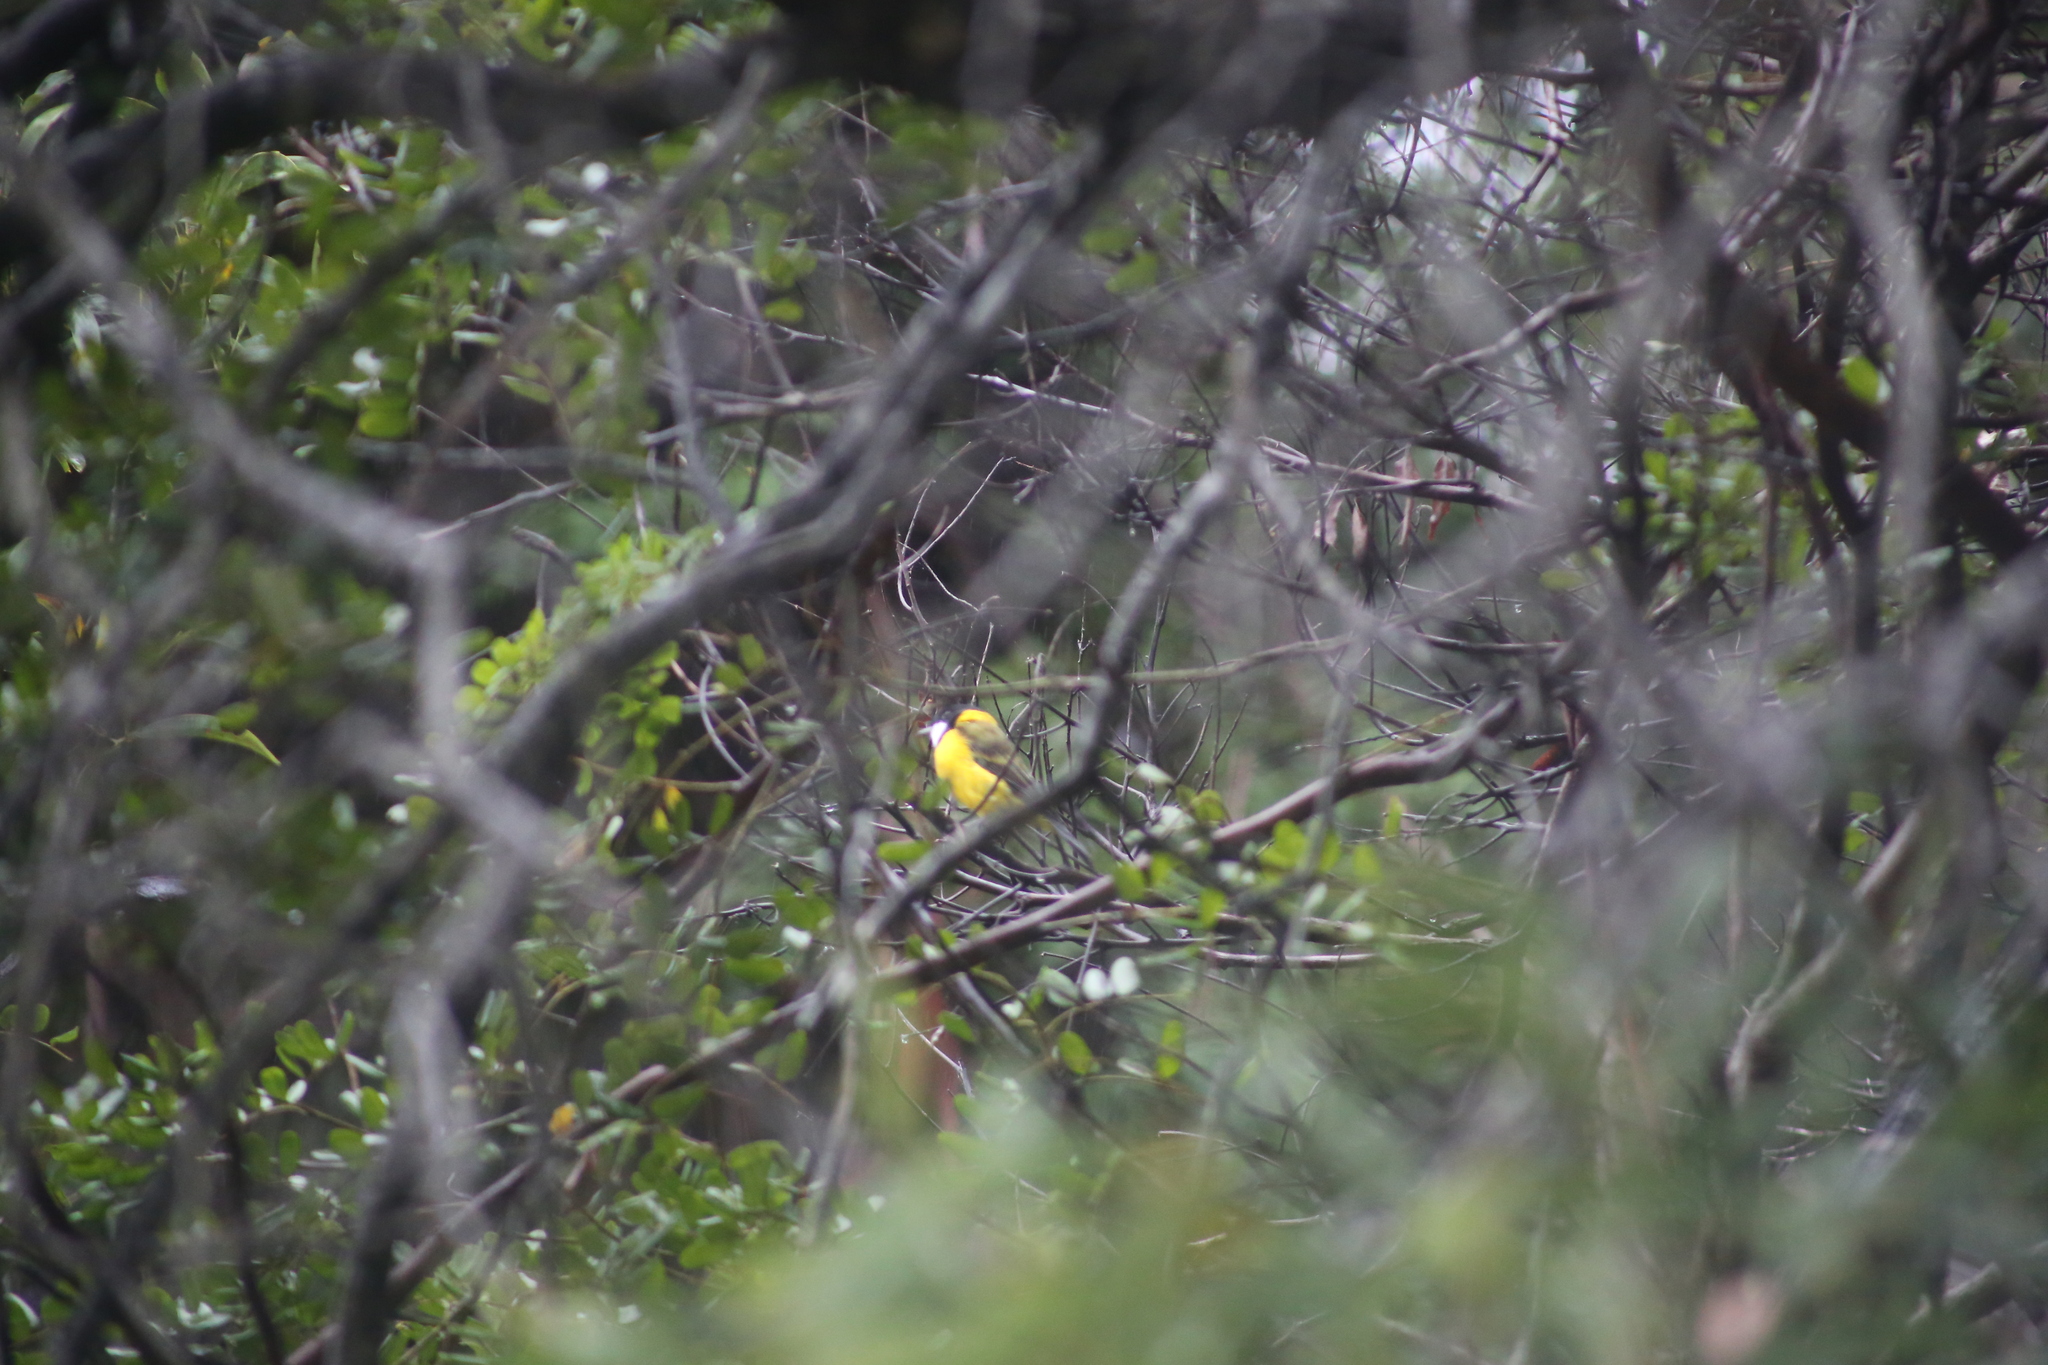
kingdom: Animalia
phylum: Chordata
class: Aves
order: Passeriformes
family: Pachycephalidae
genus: Pachycephala
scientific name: Pachycephala pectoralis
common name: Australian golden whistler
